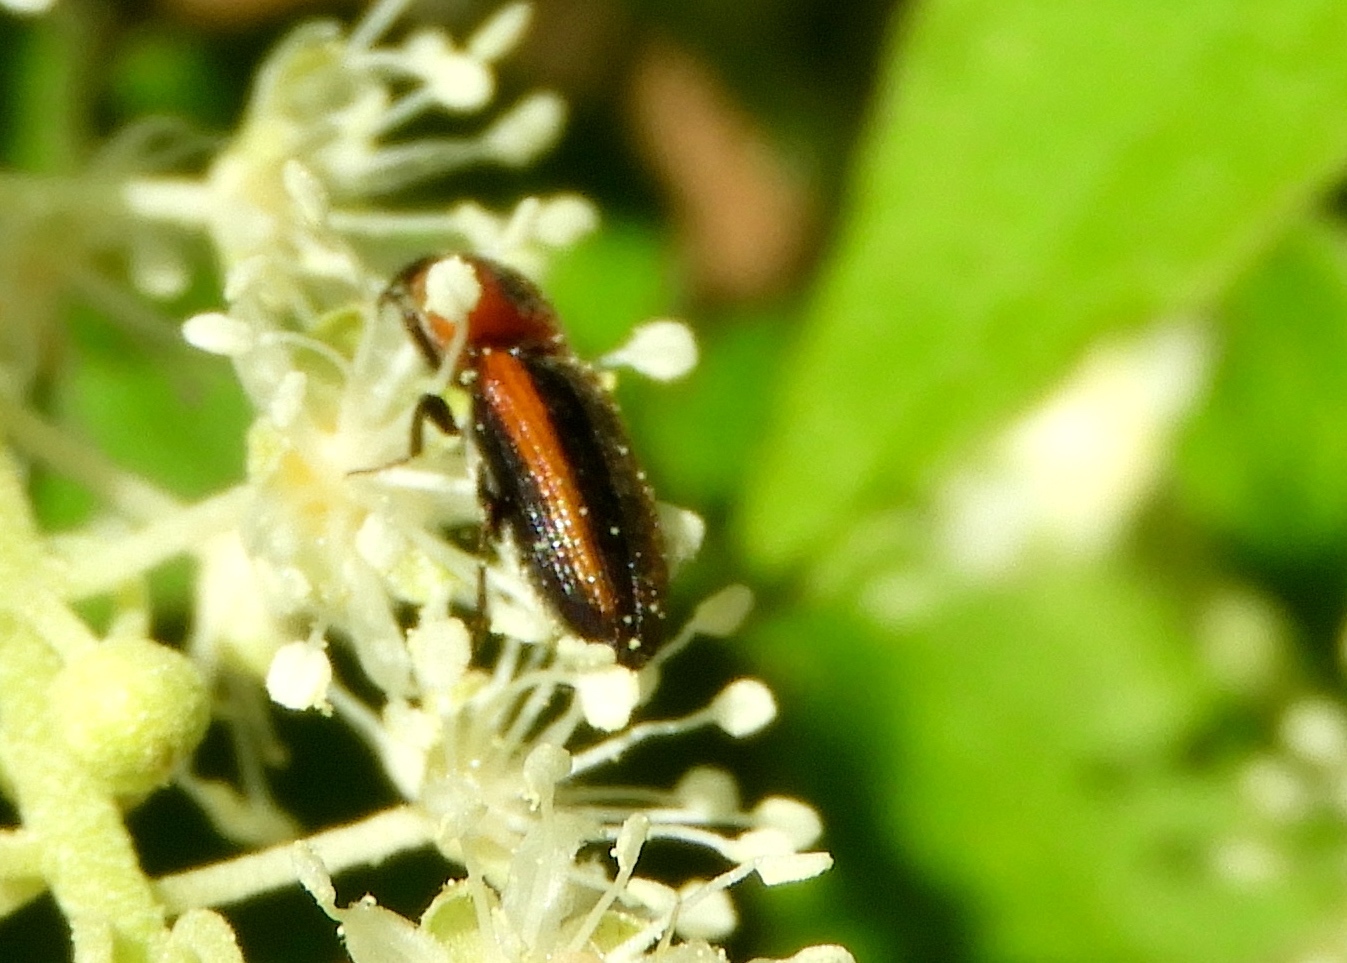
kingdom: Animalia
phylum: Arthropoda
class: Insecta
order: Coleoptera
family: Elateridae
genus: Cardiophorus
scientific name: Cardiophorus aptopoides
